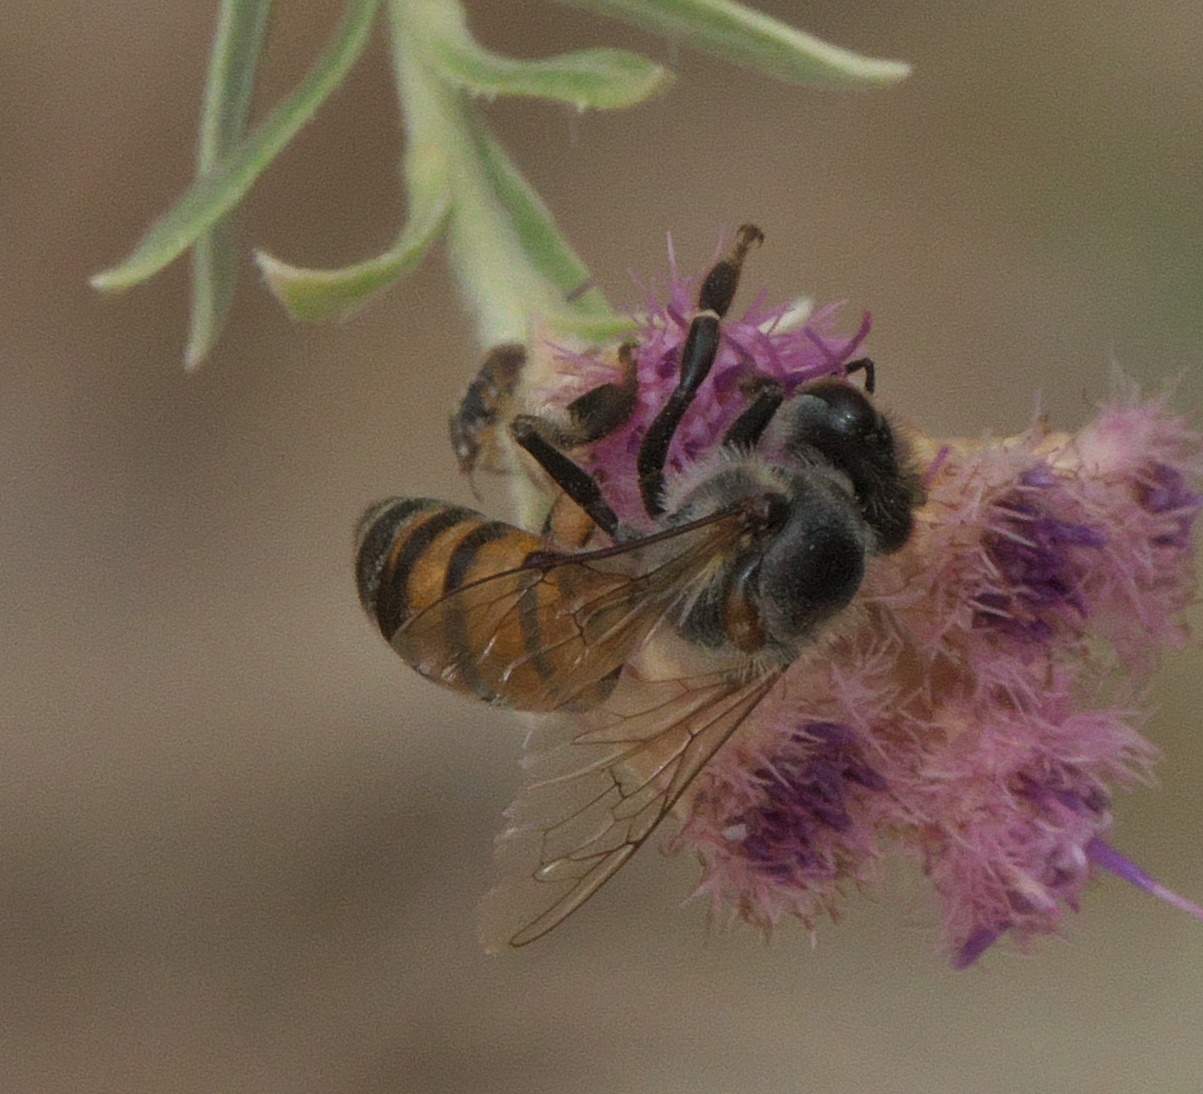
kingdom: Animalia
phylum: Arthropoda
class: Insecta
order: Hymenoptera
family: Apidae
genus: Apis
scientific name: Apis mellifera
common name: Honey bee
